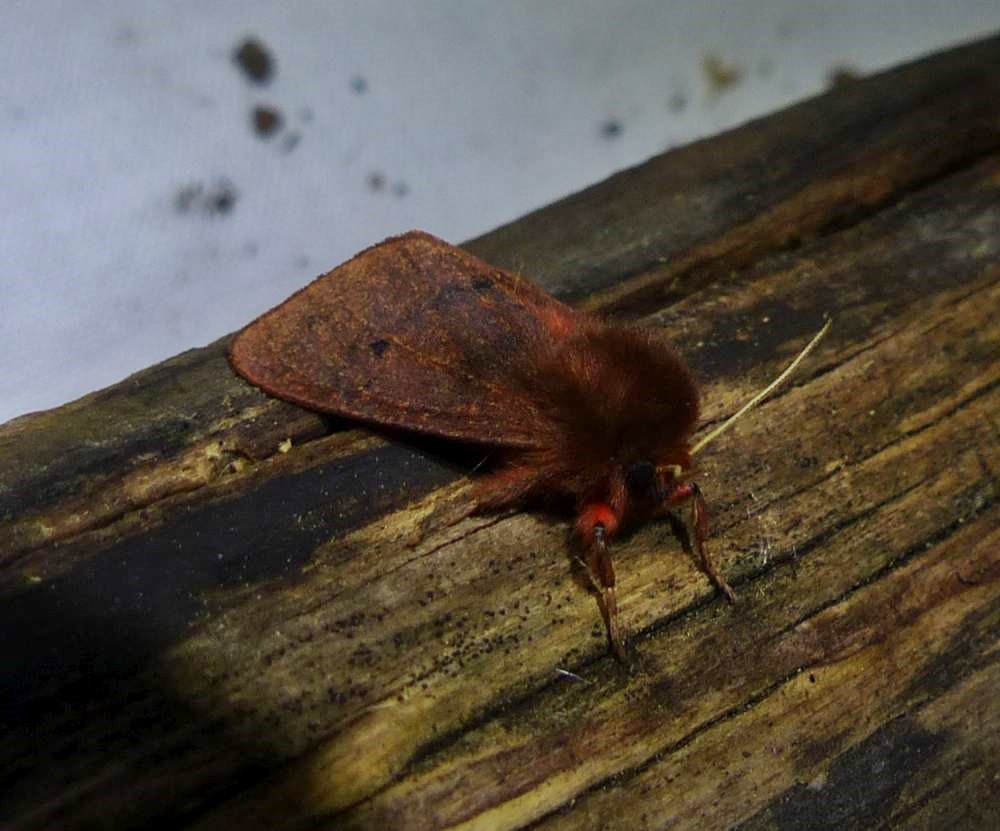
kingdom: Animalia
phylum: Arthropoda
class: Insecta
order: Lepidoptera
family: Erebidae
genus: Phragmatobia
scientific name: Phragmatobia fuliginosa
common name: Ruby tiger
